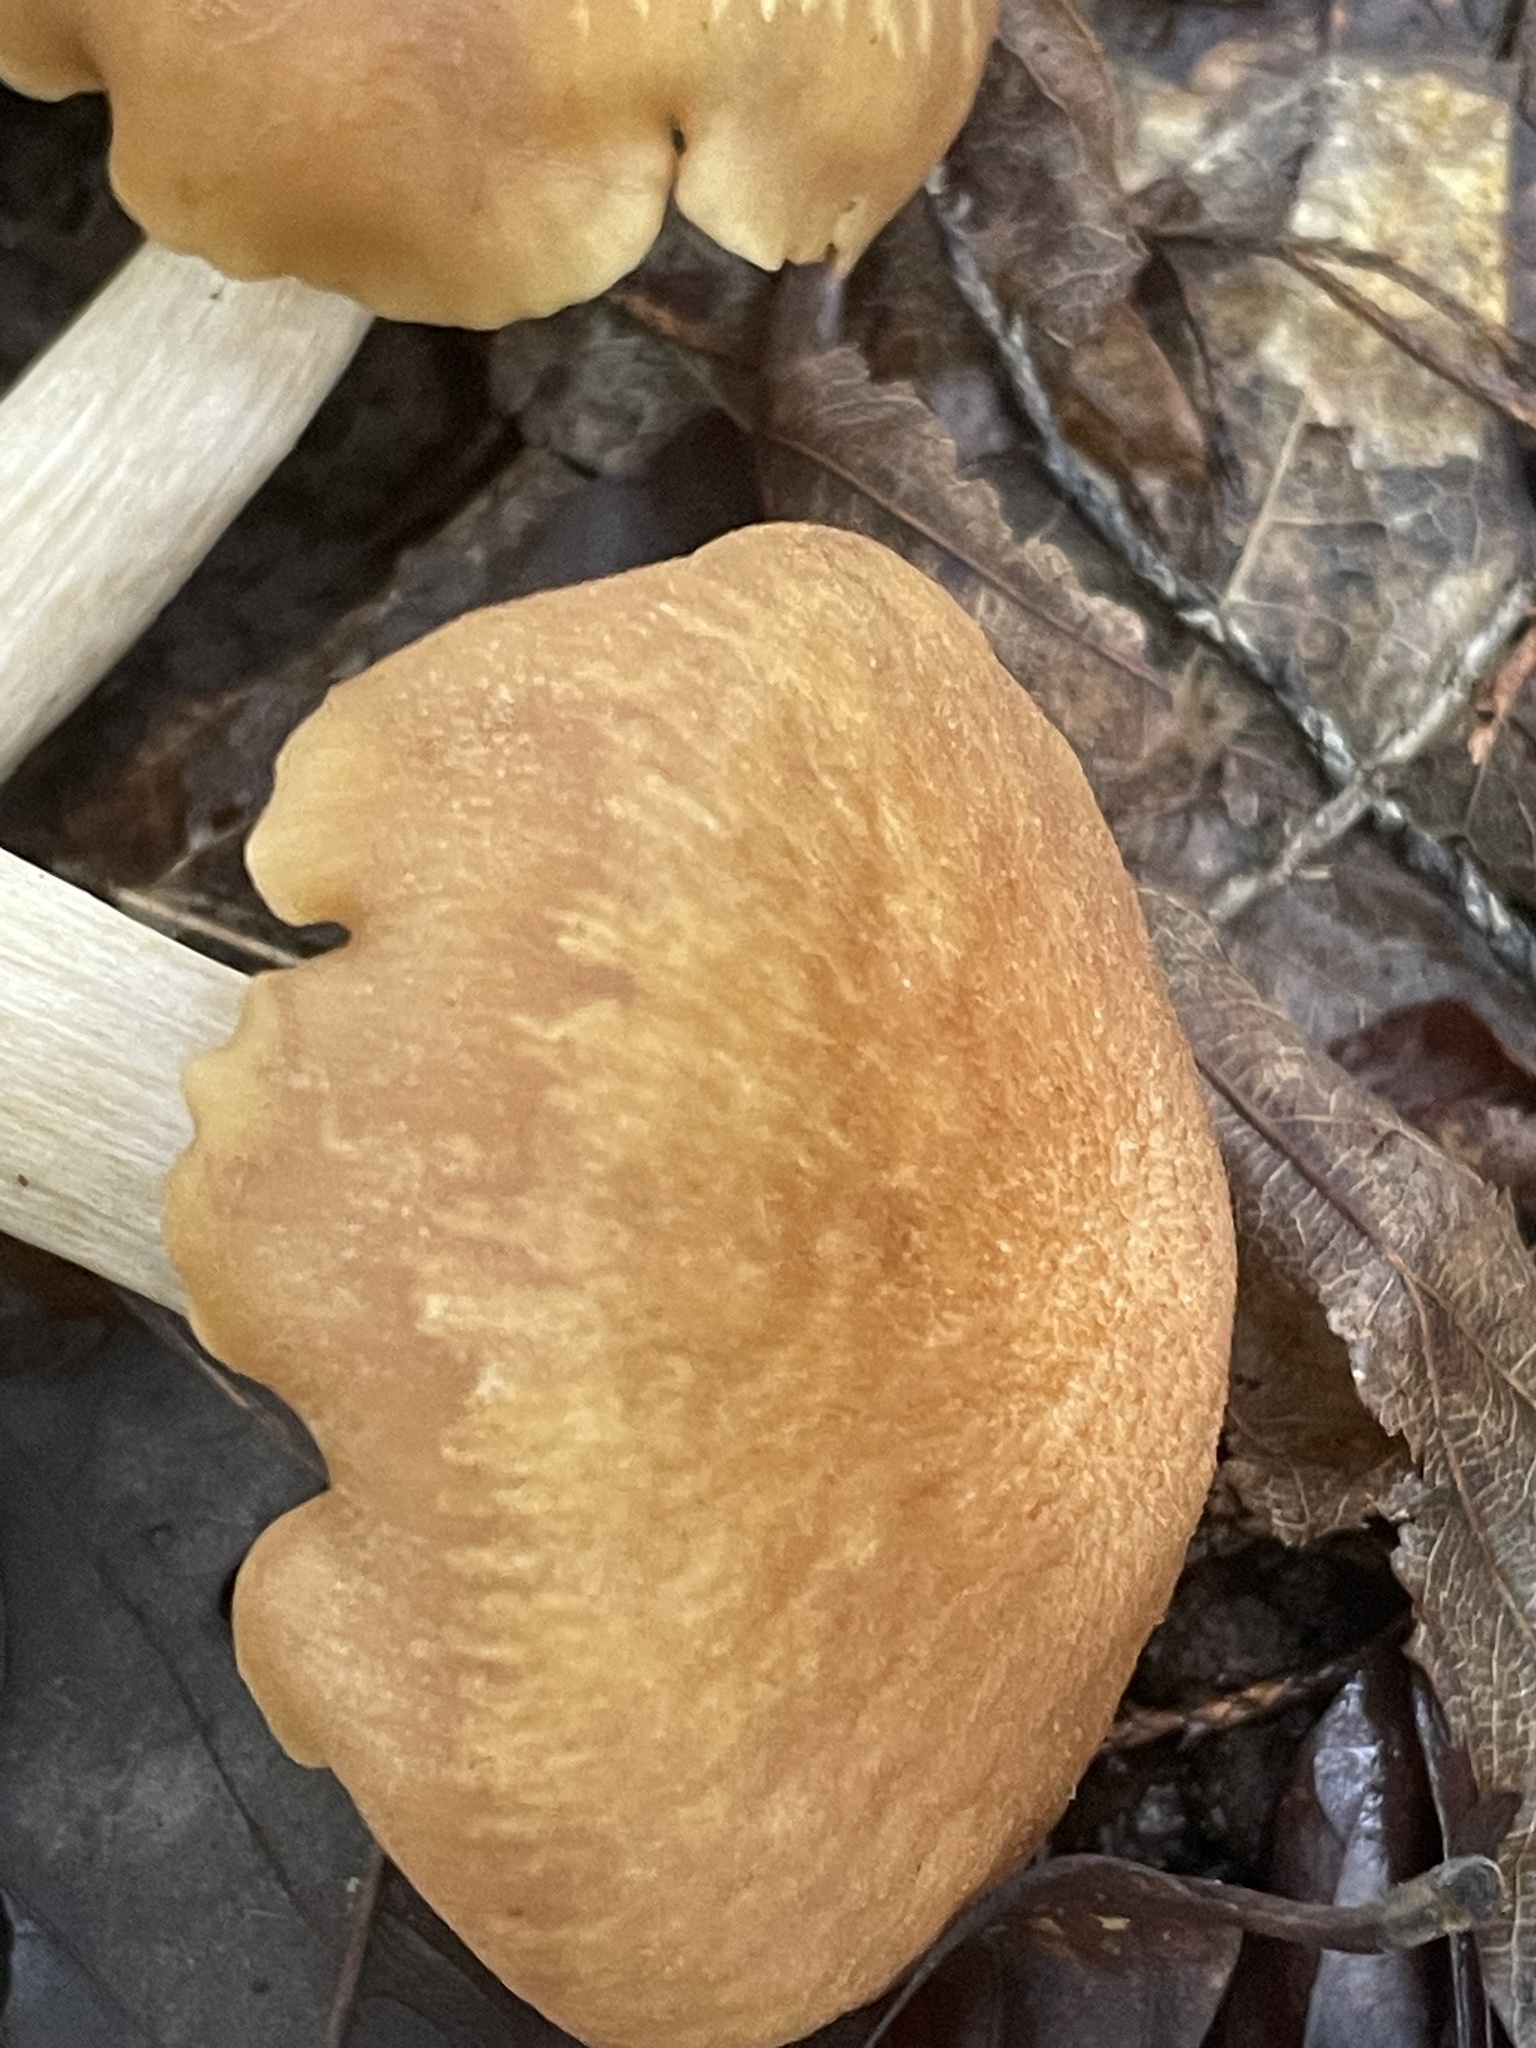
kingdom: Fungi
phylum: Basidiomycota
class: Agaricomycetes
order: Agaricales
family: Physalacriaceae
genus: Desarmillaria
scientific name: Desarmillaria caespitosa
